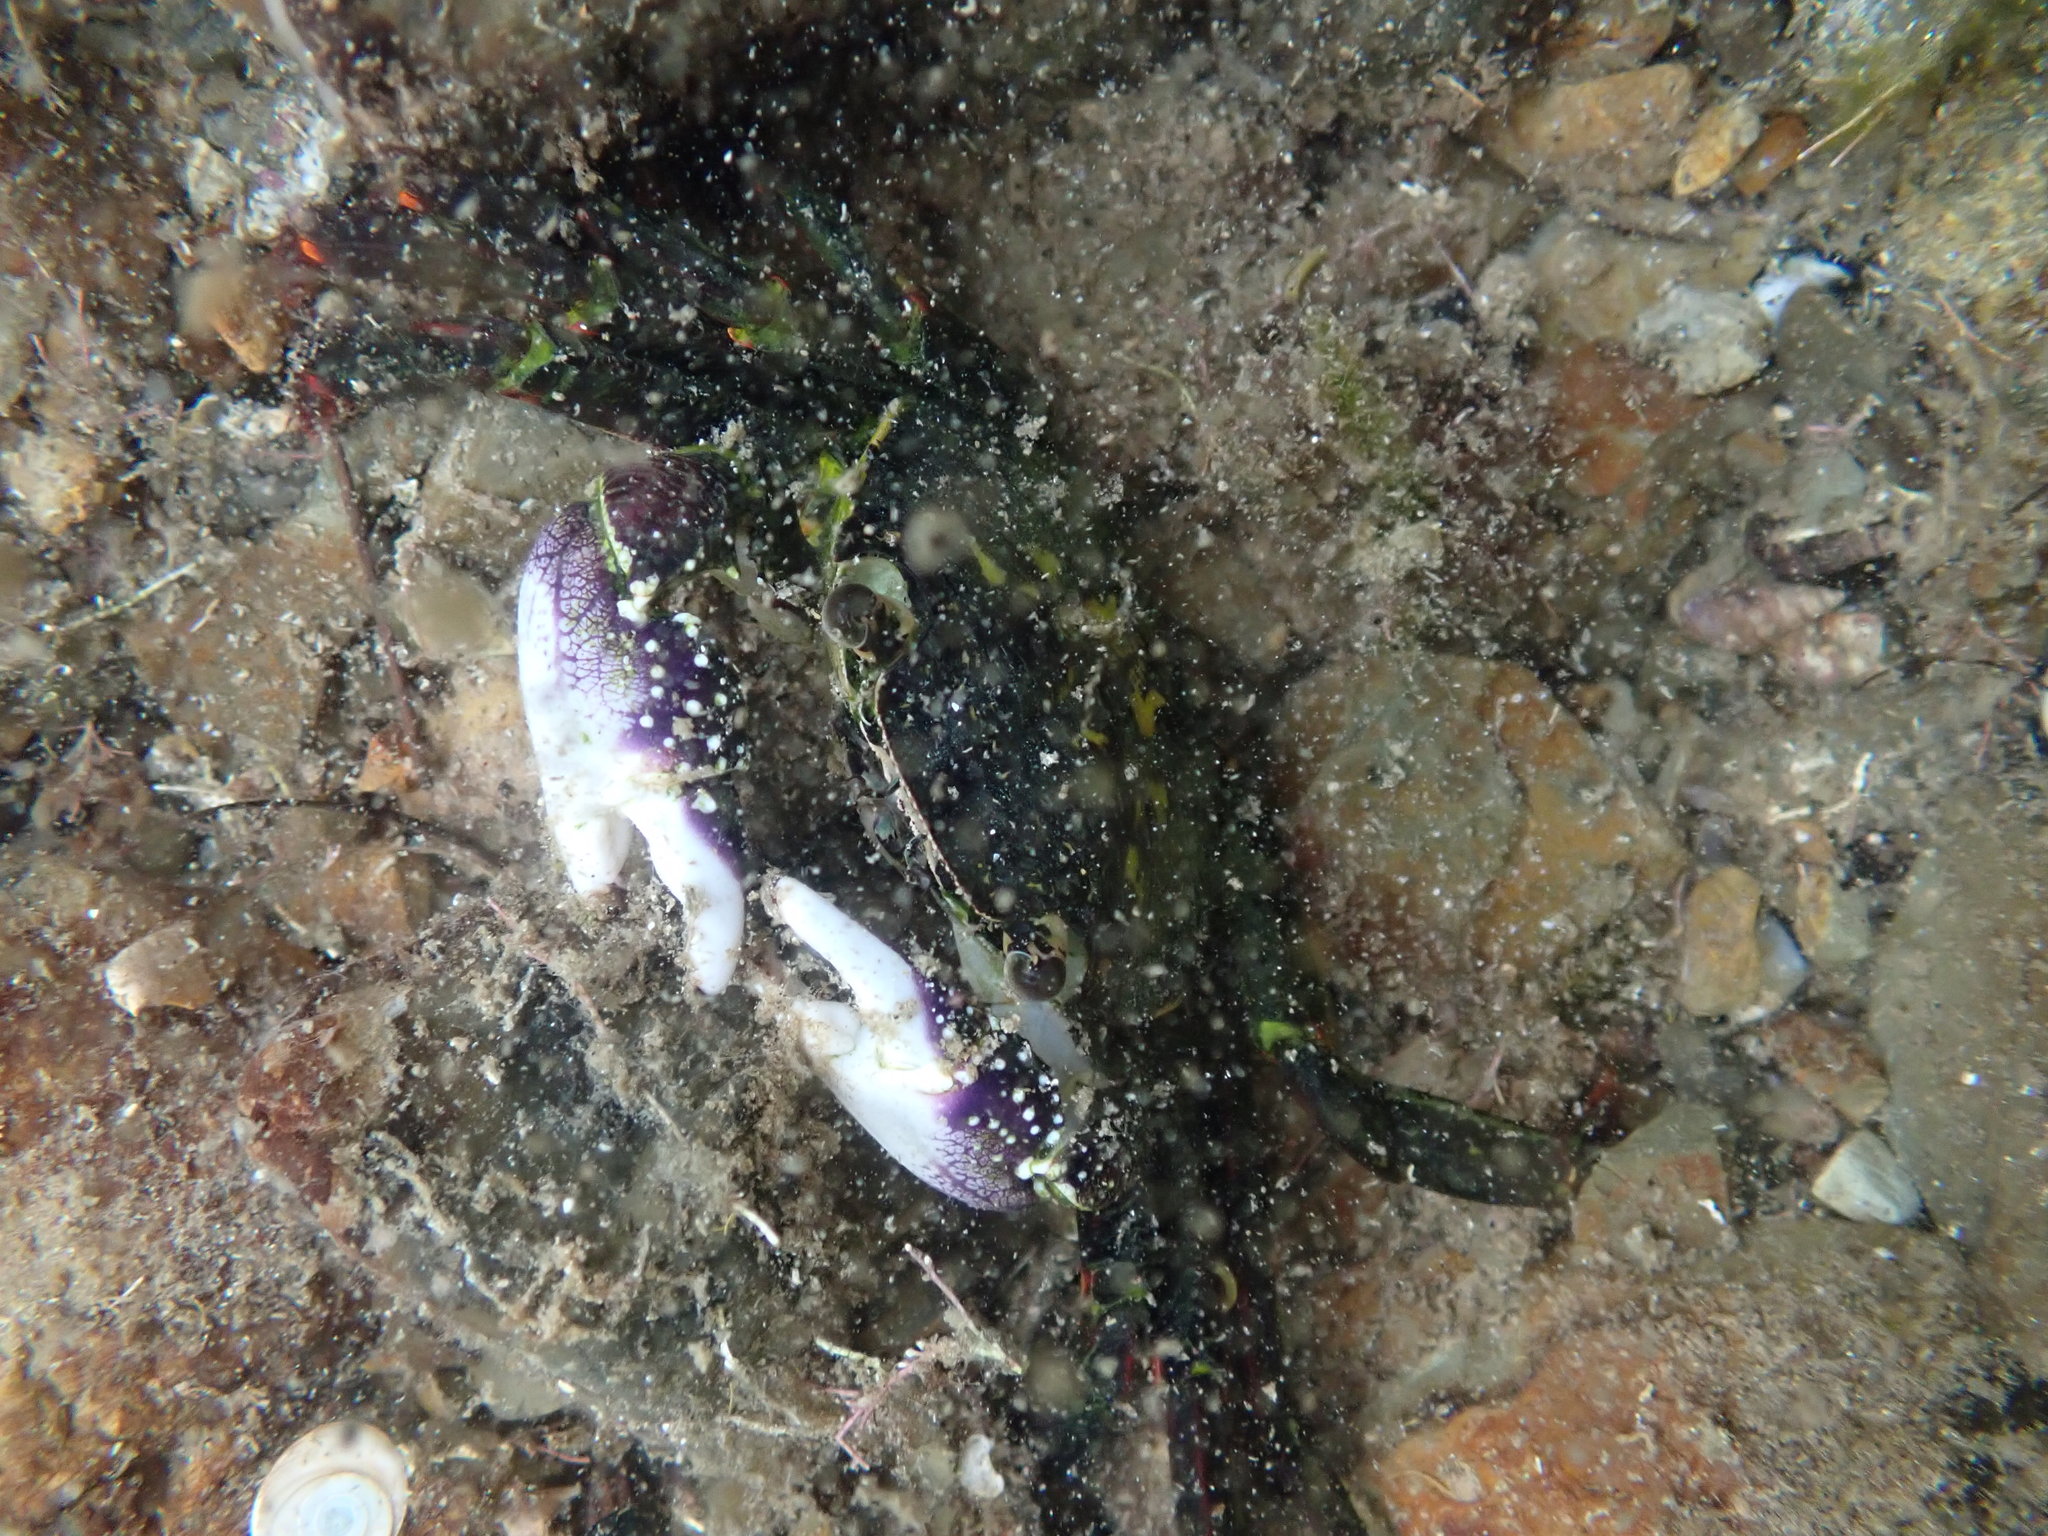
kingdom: Animalia
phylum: Arthropoda
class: Malacostraca
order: Decapoda
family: Grapsidae
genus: Leptograpsus
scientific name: Leptograpsus variegatus
